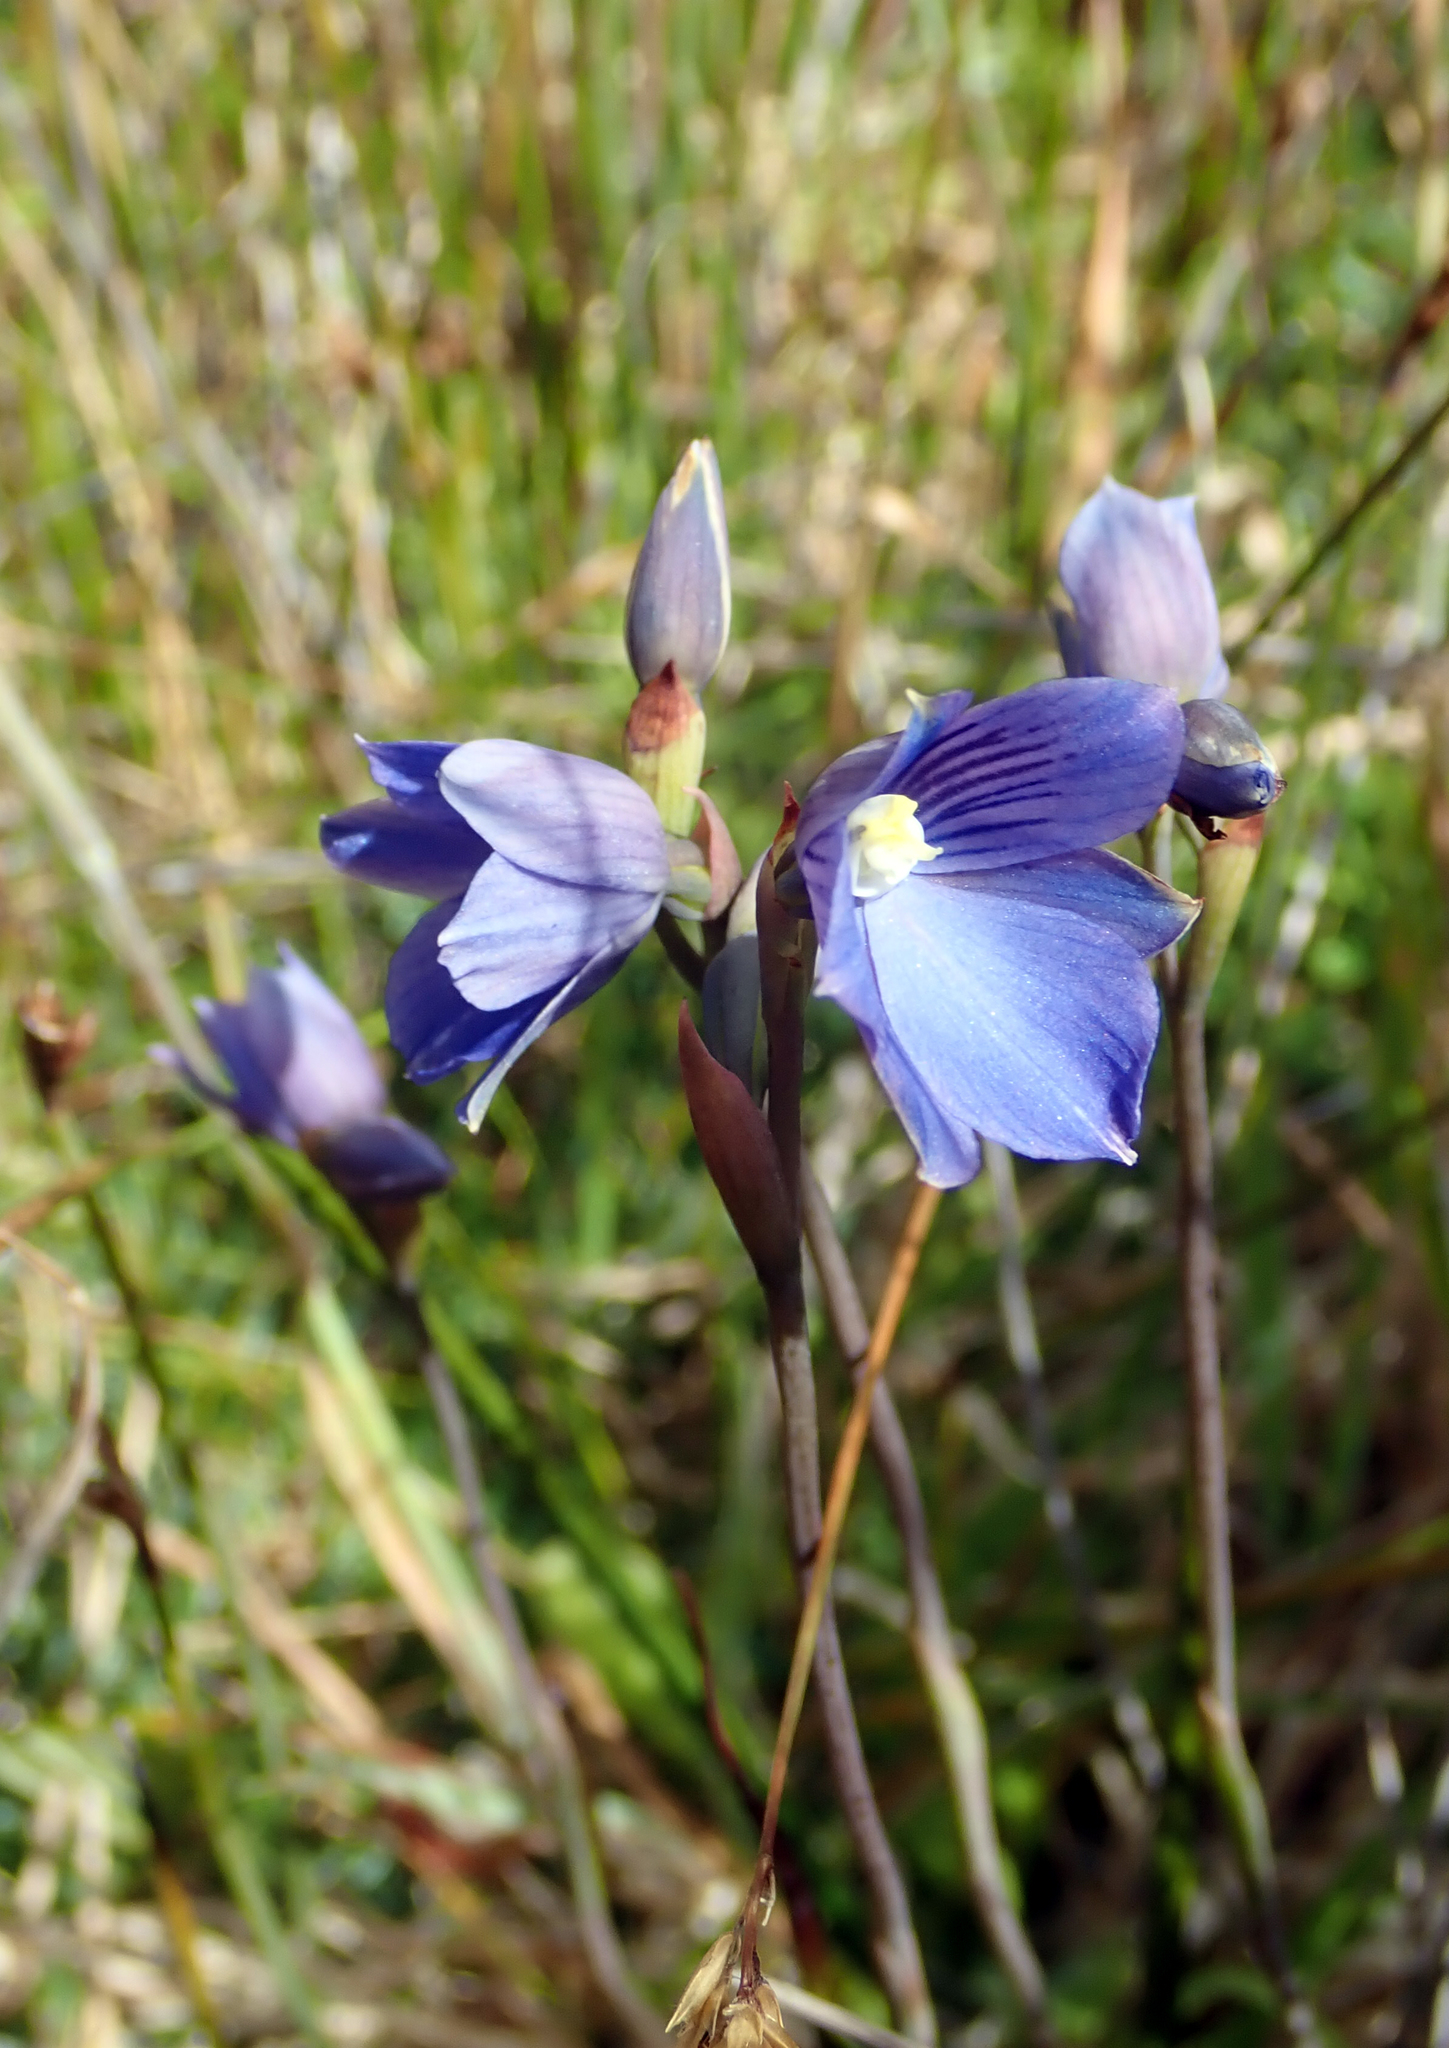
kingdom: Plantae
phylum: Tracheophyta
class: Liliopsida
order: Asparagales
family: Orchidaceae
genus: Thelymitra
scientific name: Thelymitra cyanea
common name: Blue sun-orchid
